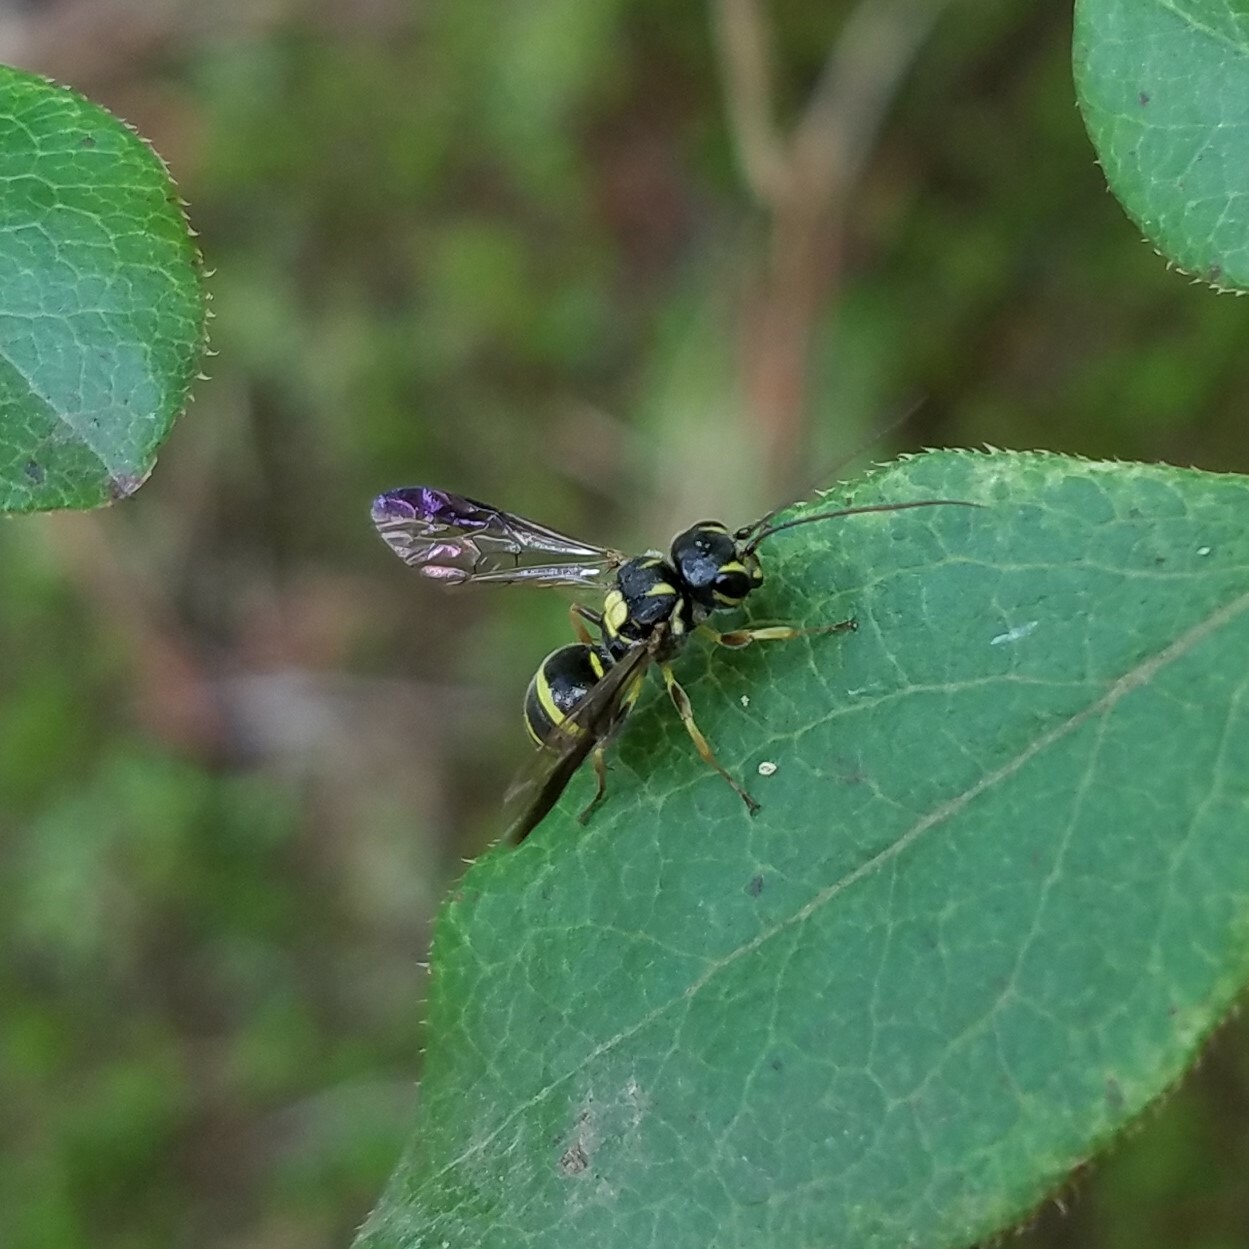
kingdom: Animalia
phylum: Arthropoda
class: Insecta
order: Hymenoptera
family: Trigonalidae
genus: Taeniogonalos
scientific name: Taeniogonalos gundlachii
